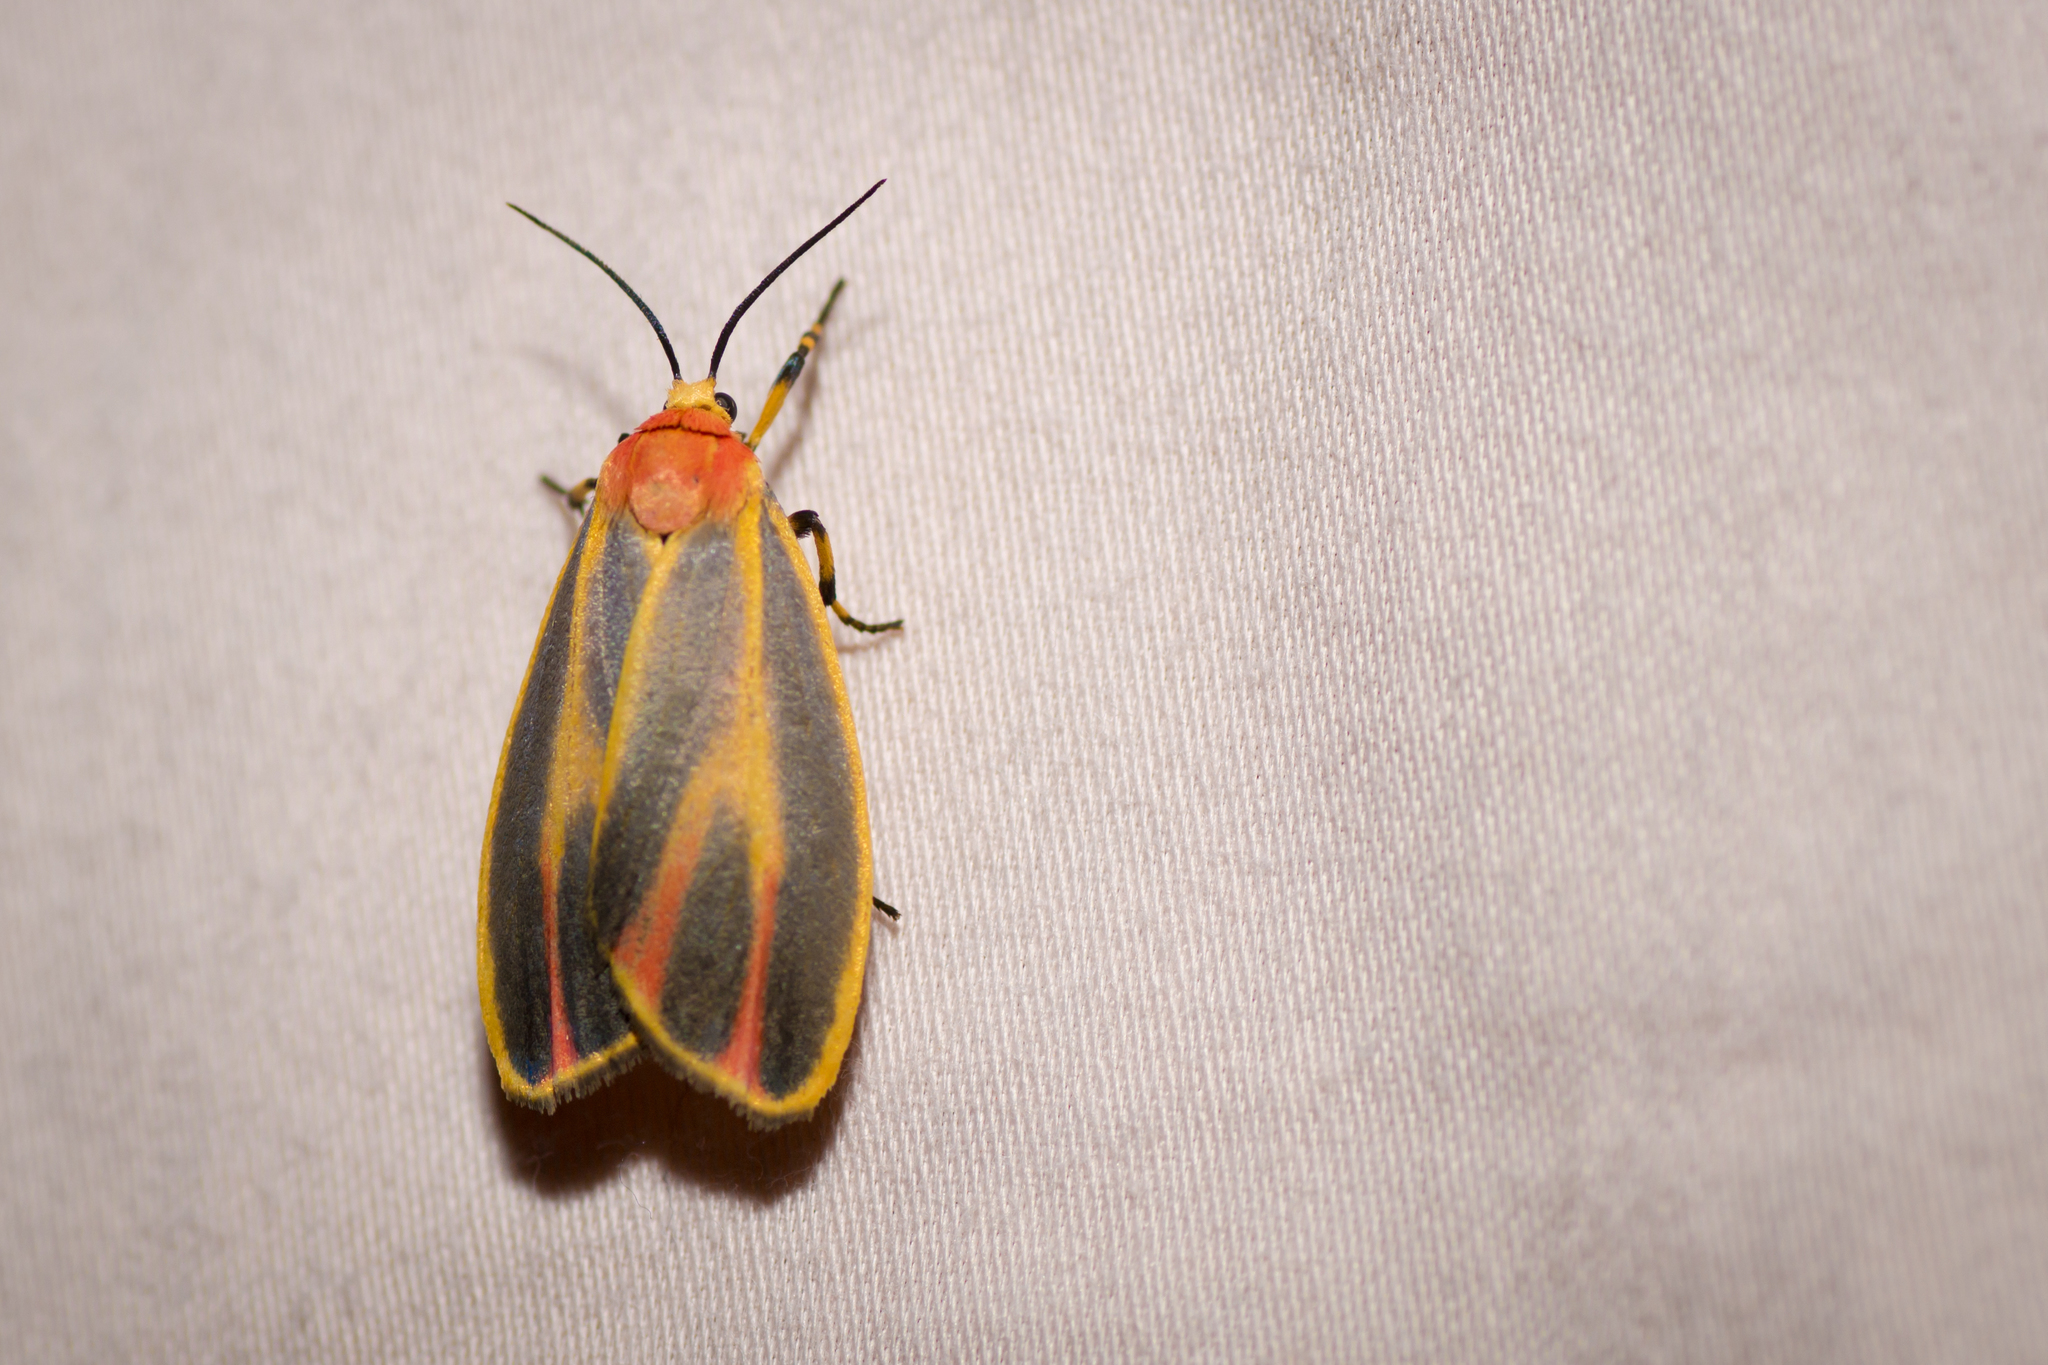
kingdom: Animalia
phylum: Arthropoda
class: Insecta
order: Lepidoptera
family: Erebidae
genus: Hypoprepia
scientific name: Hypoprepia fucosa
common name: Painted lichen moth
